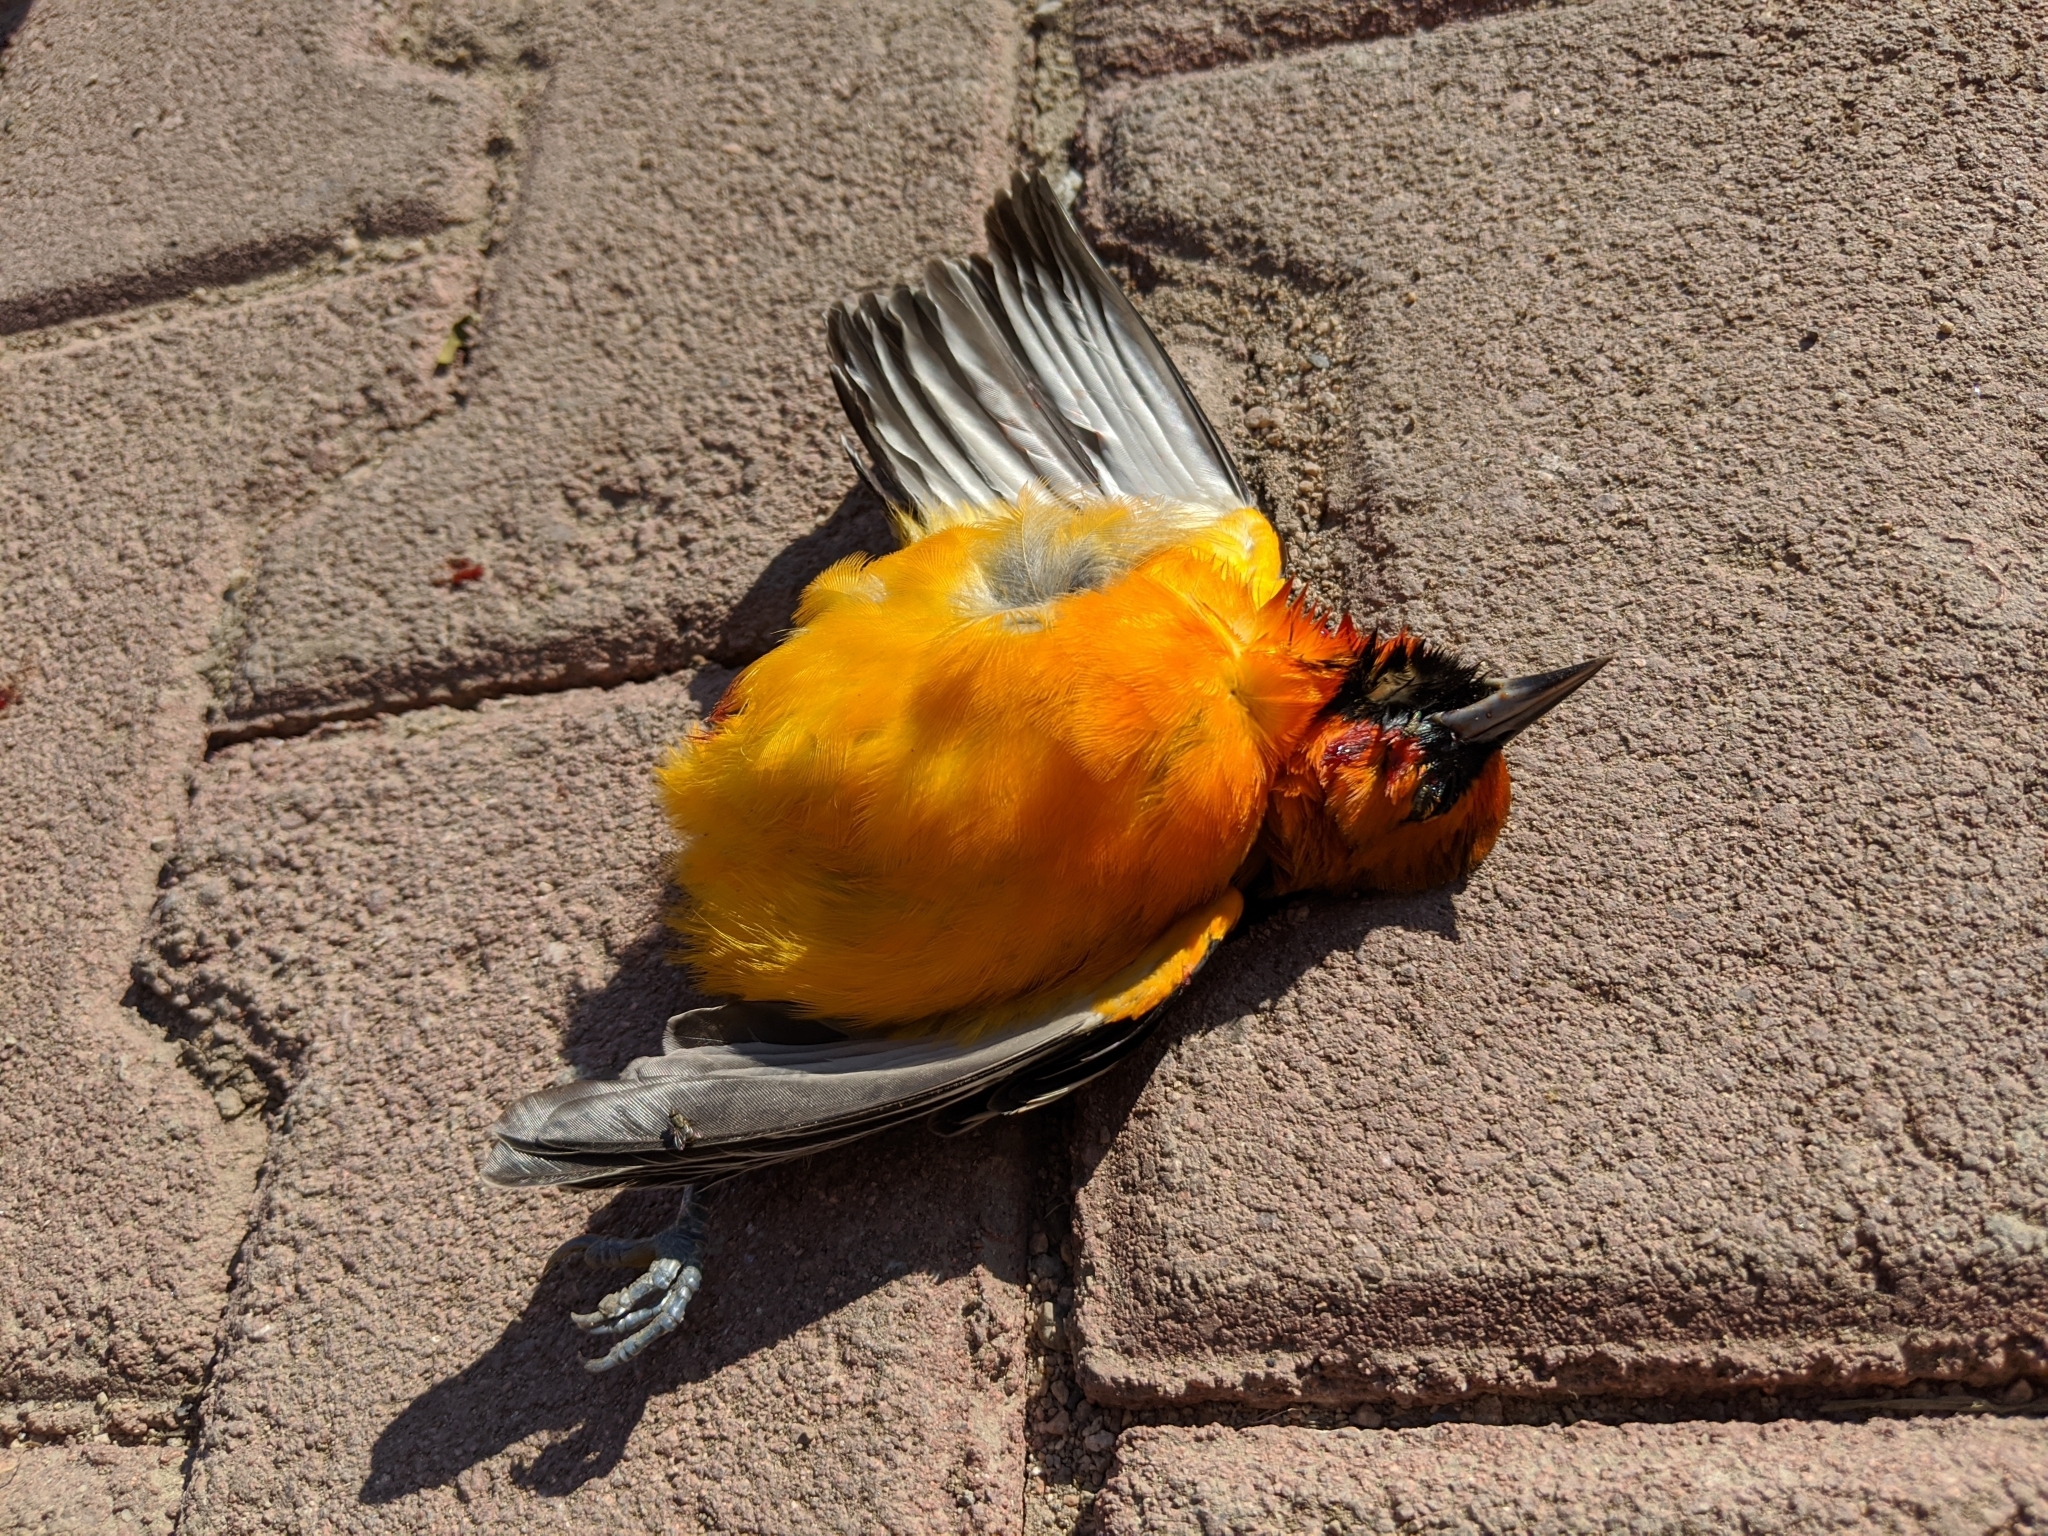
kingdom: Animalia
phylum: Chordata
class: Aves
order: Passeriformes
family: Icteridae
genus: Icterus
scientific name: Icterus pustulatus
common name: Streak-backed oriole
